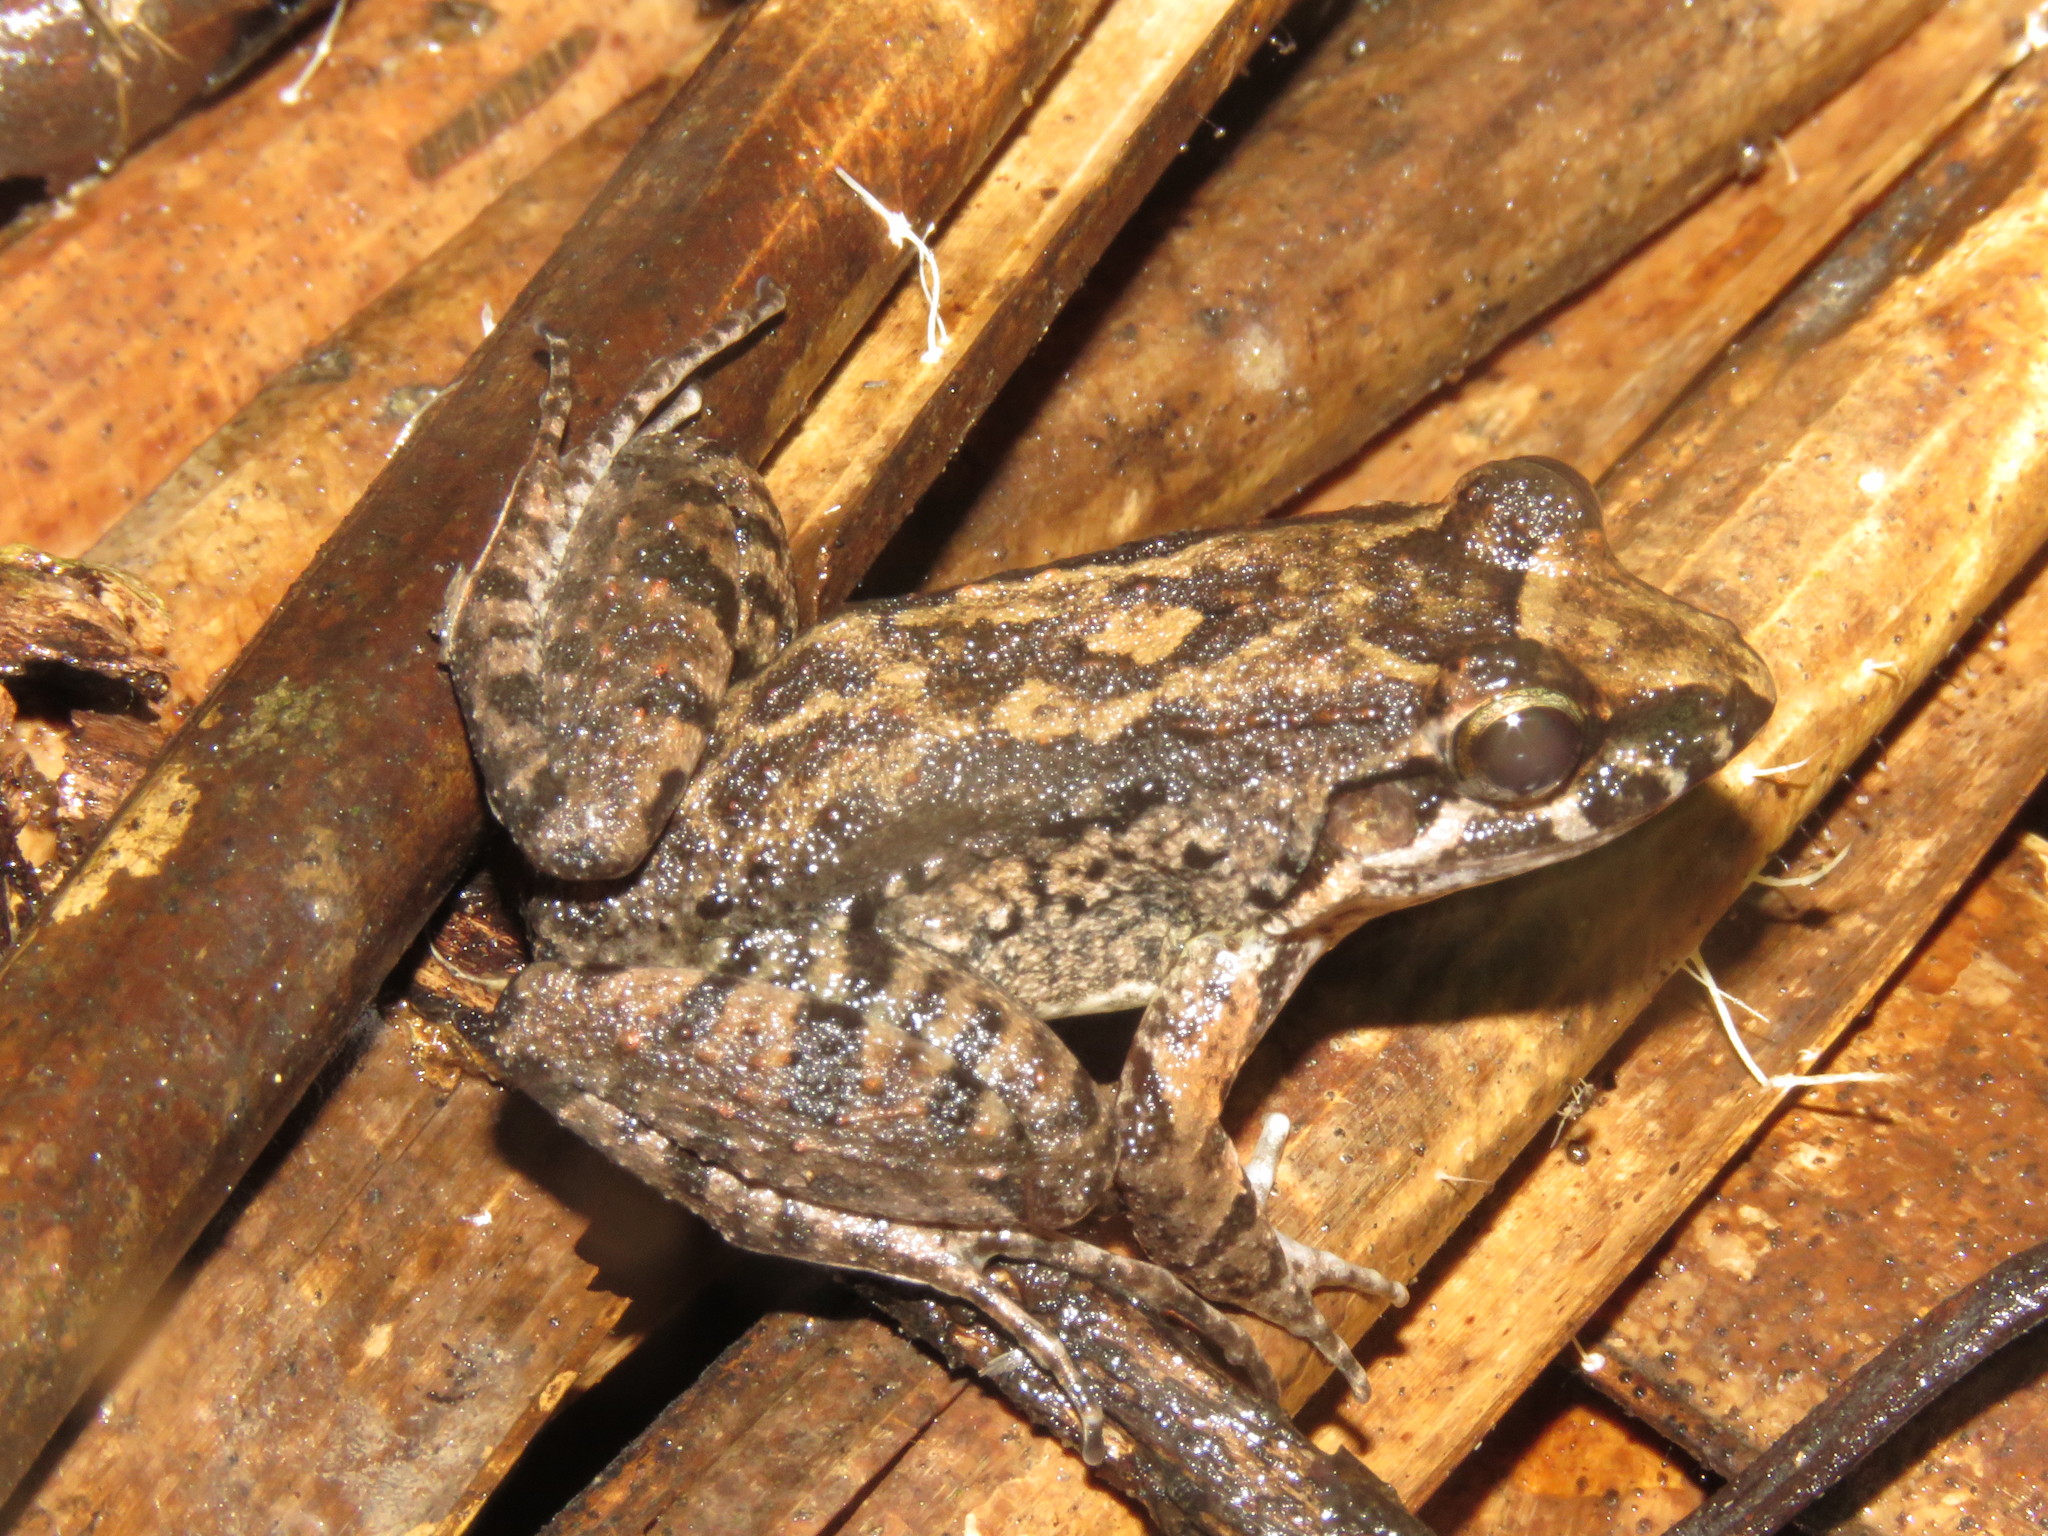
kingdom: Animalia
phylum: Chordata
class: Amphibia
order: Anura
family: Leptodactylidae
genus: Leptodactylus
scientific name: Leptodactylus petersii
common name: Peters' thin-toed frog
